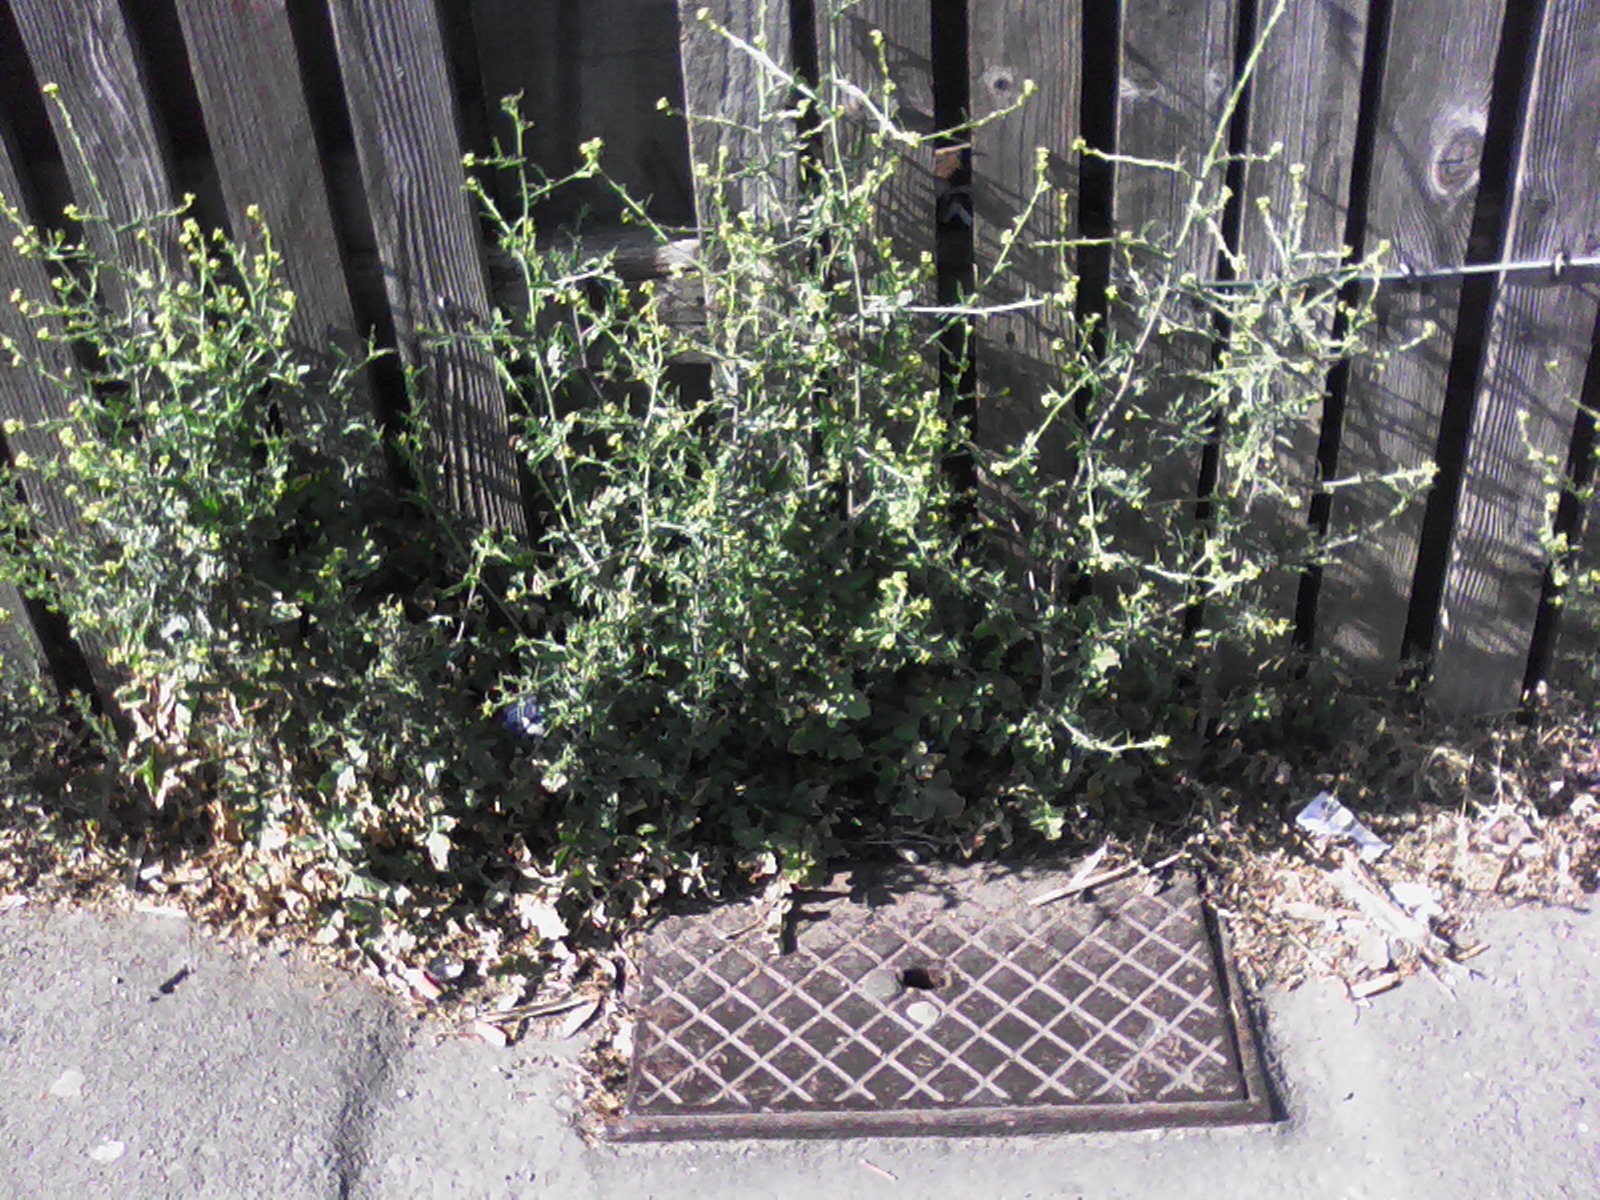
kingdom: Plantae
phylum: Tracheophyta
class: Magnoliopsida
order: Brassicales
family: Brassicaceae
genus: Sisymbrium
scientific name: Sisymbrium officinale
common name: Hedge mustard
